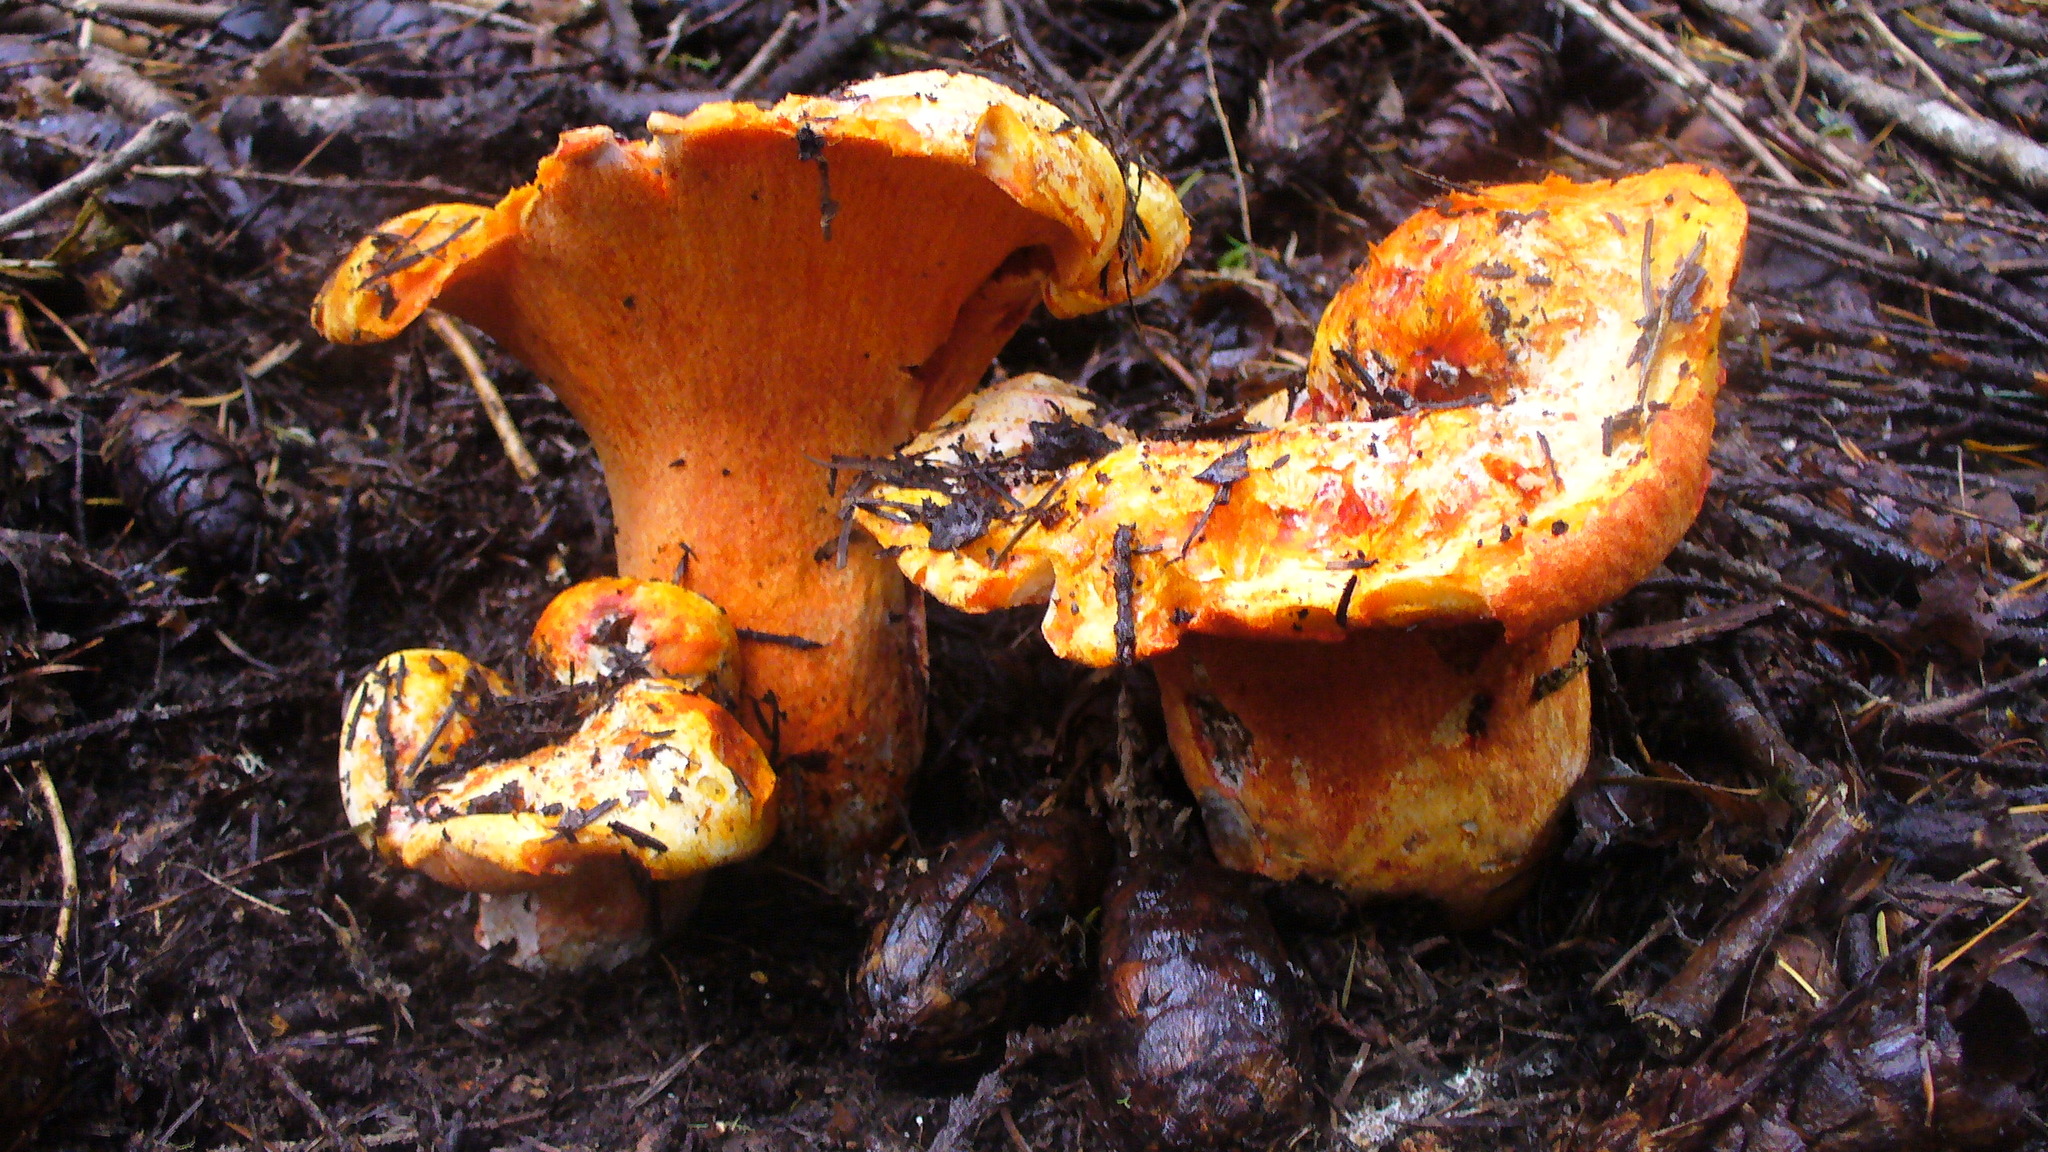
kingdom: Fungi
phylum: Ascomycota
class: Sordariomycetes
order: Hypocreales
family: Hypocreaceae
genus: Hypomyces
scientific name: Hypomyces lactifluorum
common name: Lobster mushroom
